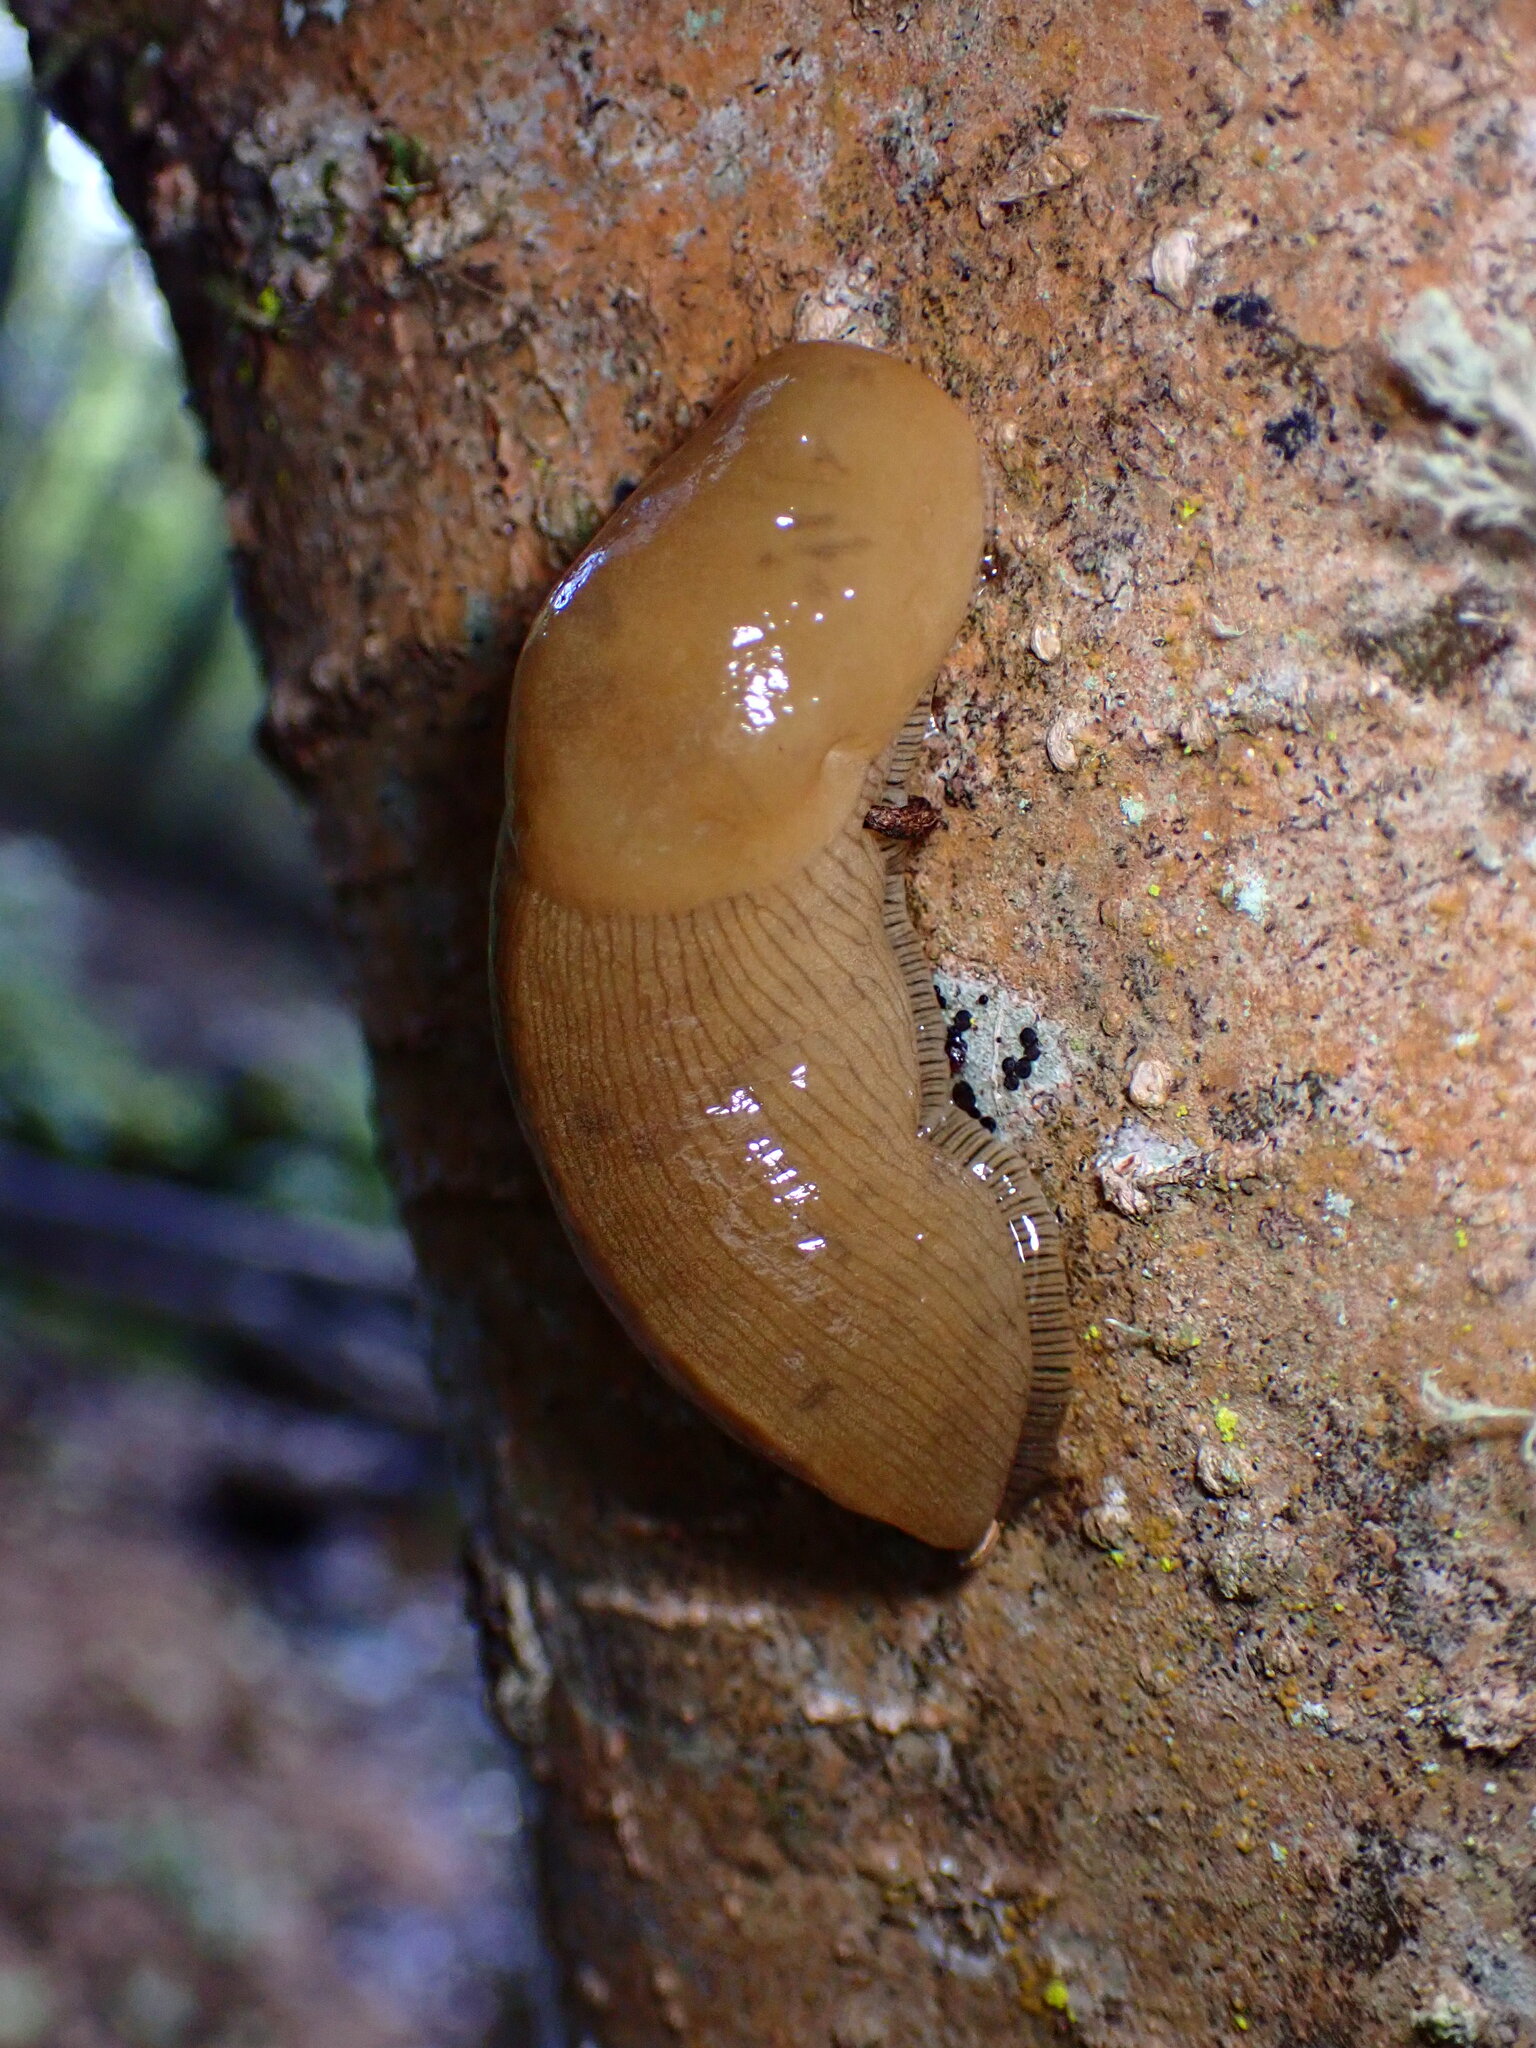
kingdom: Animalia
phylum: Mollusca
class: Gastropoda
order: Stylommatophora
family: Ariolimacidae
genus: Ariolimax
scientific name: Ariolimax buttoni
